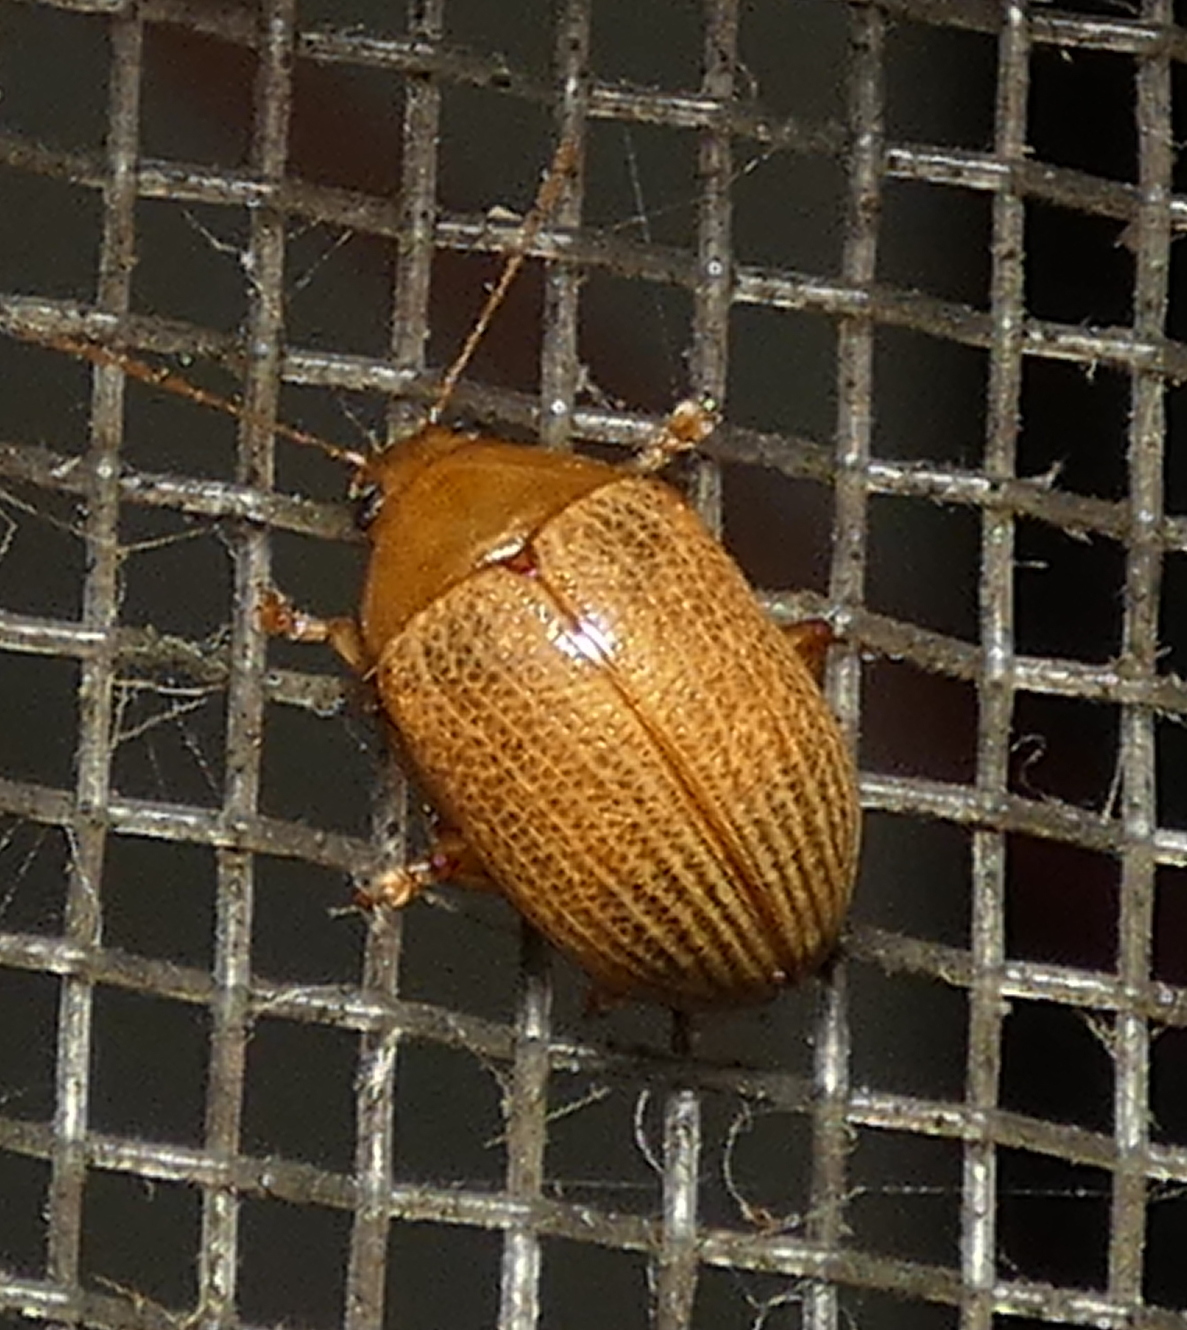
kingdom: Animalia
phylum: Arthropoda
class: Insecta
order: Coleoptera
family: Chrysomelidae
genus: Anisodera
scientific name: Anisodera ferruginea
